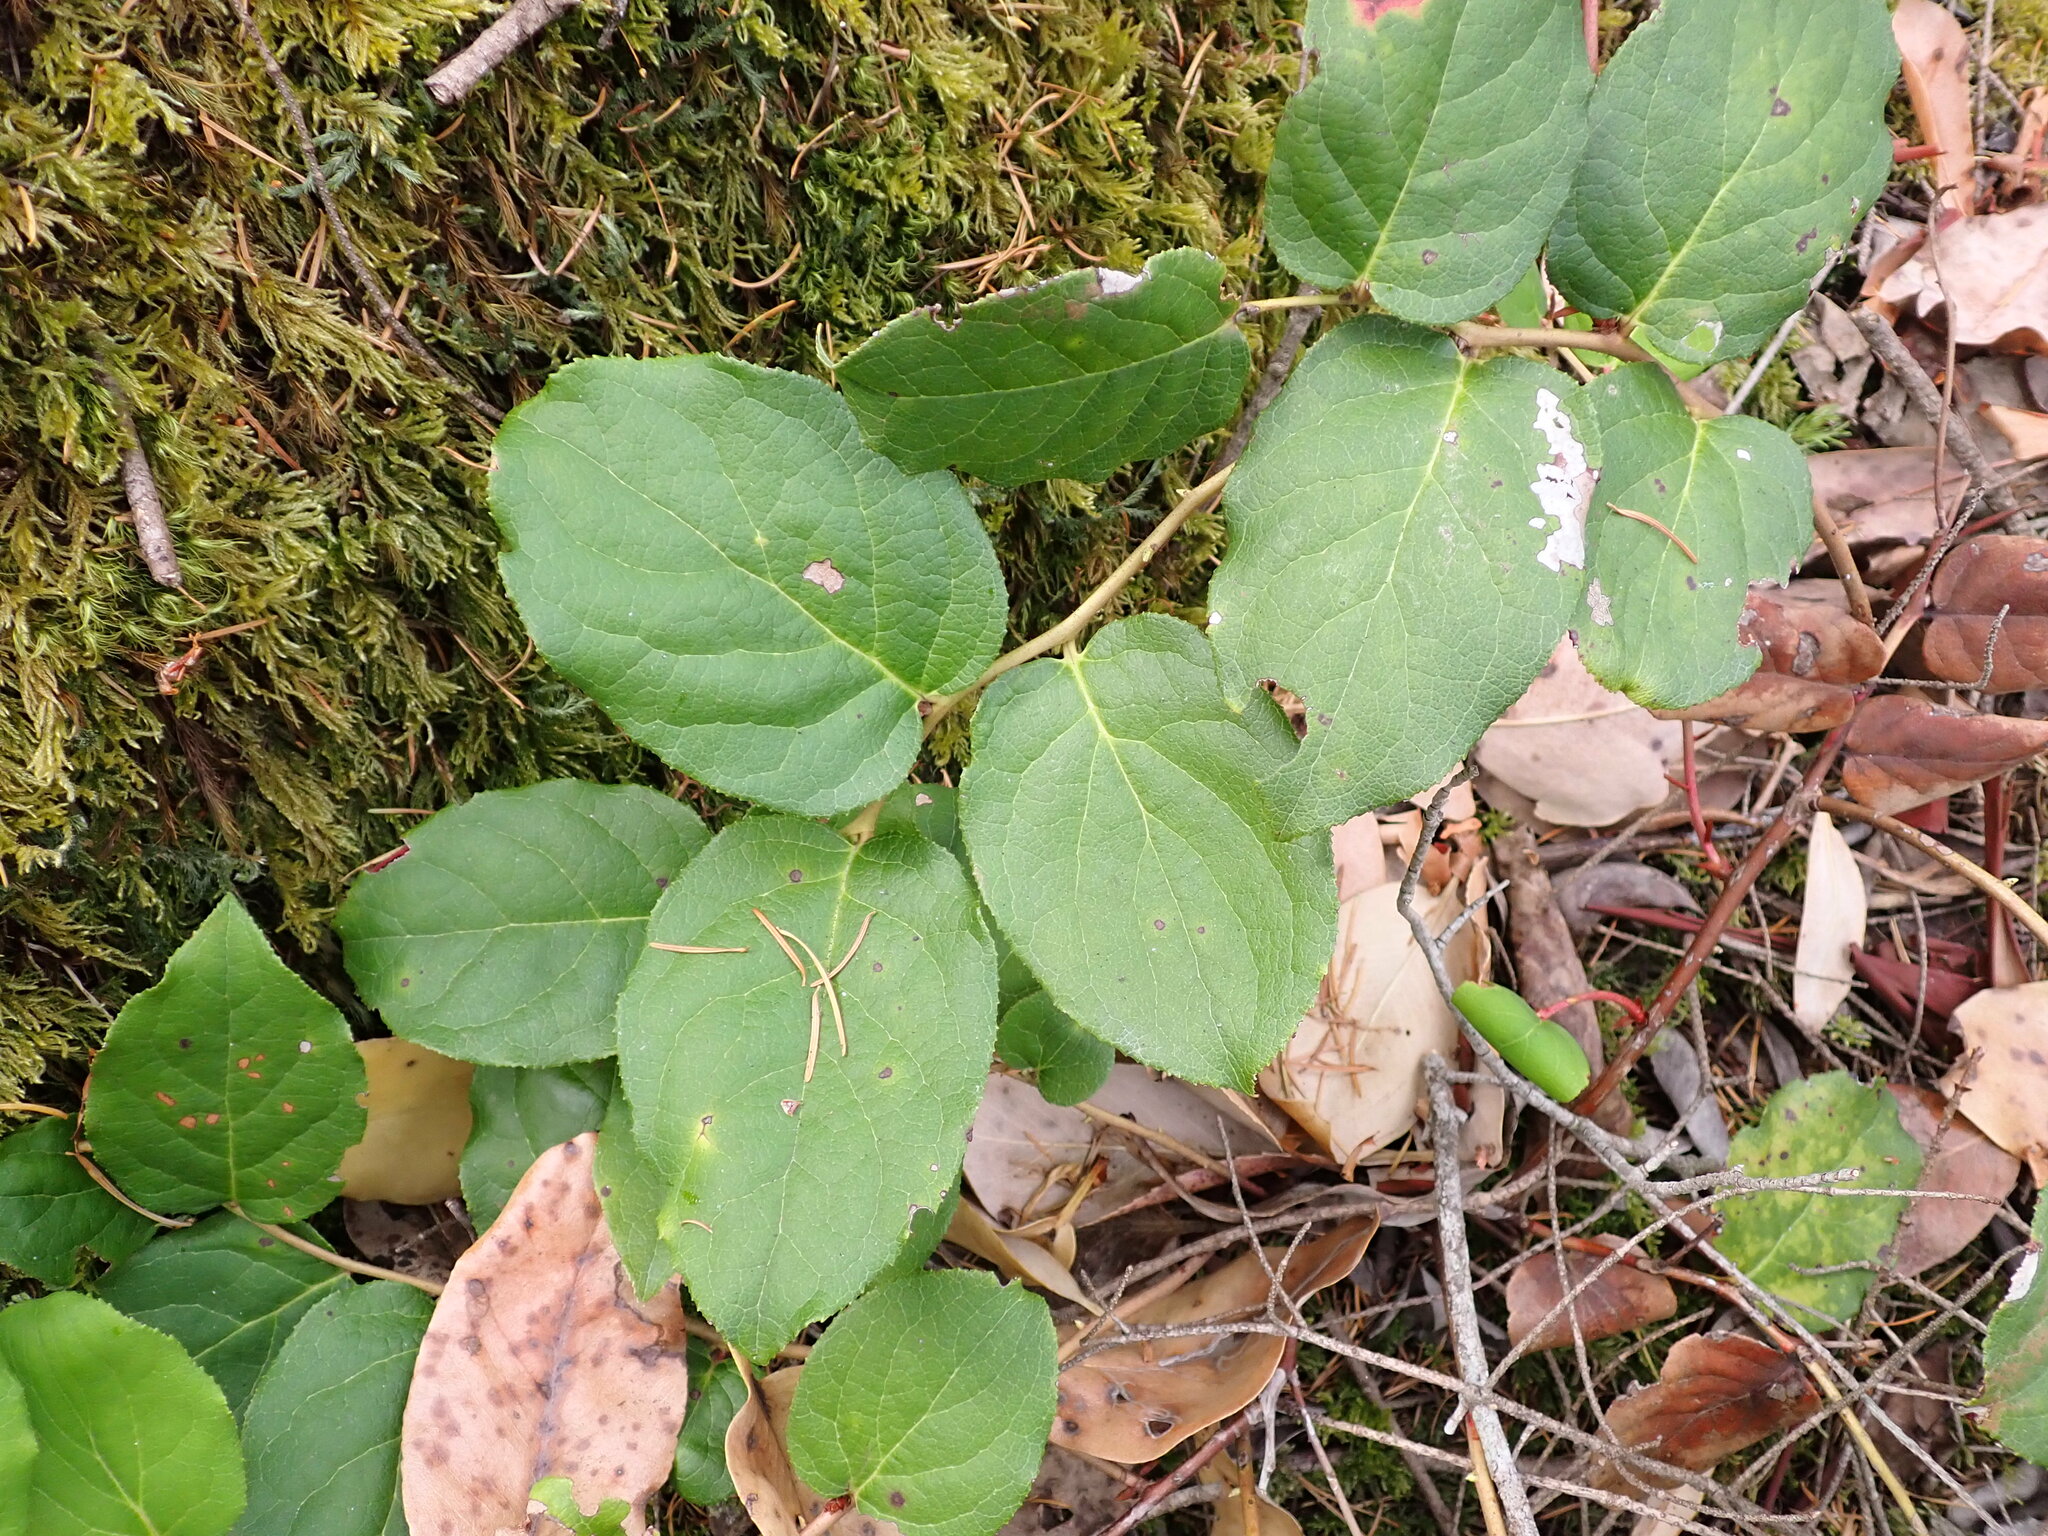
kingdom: Plantae
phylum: Tracheophyta
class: Magnoliopsida
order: Ericales
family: Ericaceae
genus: Gaultheria
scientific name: Gaultheria shallon
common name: Shallon
